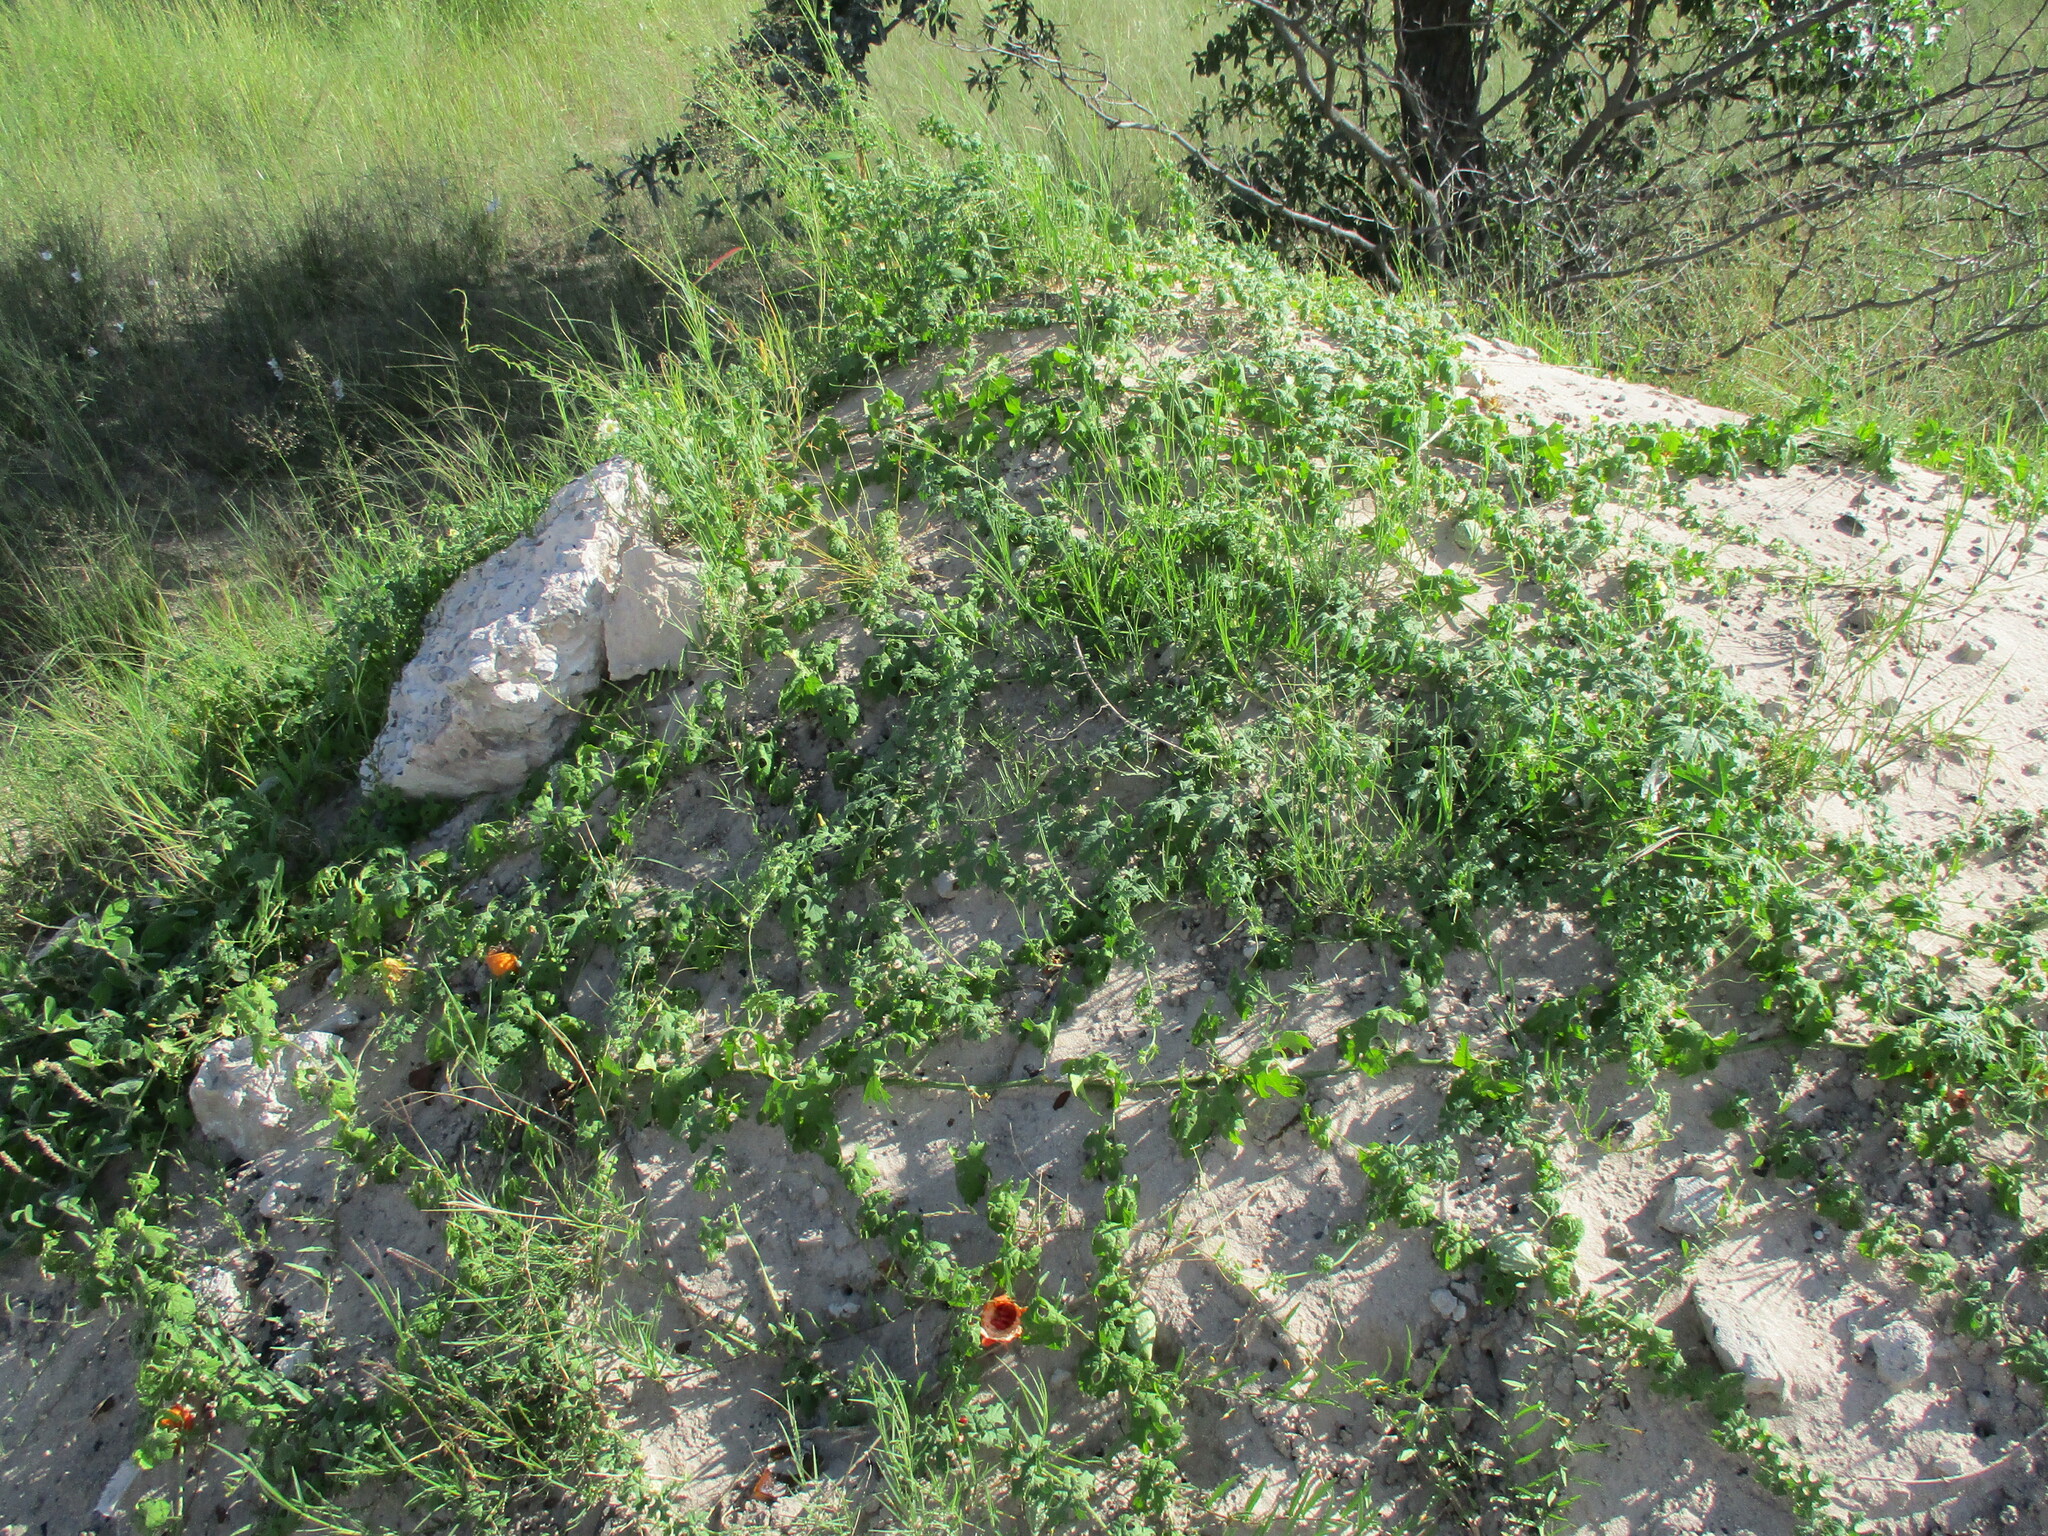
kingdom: Plantae
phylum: Tracheophyta
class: Magnoliopsida
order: Cucurbitales
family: Cucurbitaceae
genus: Momordica
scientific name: Momordica balsamina
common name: Southern balsampear
